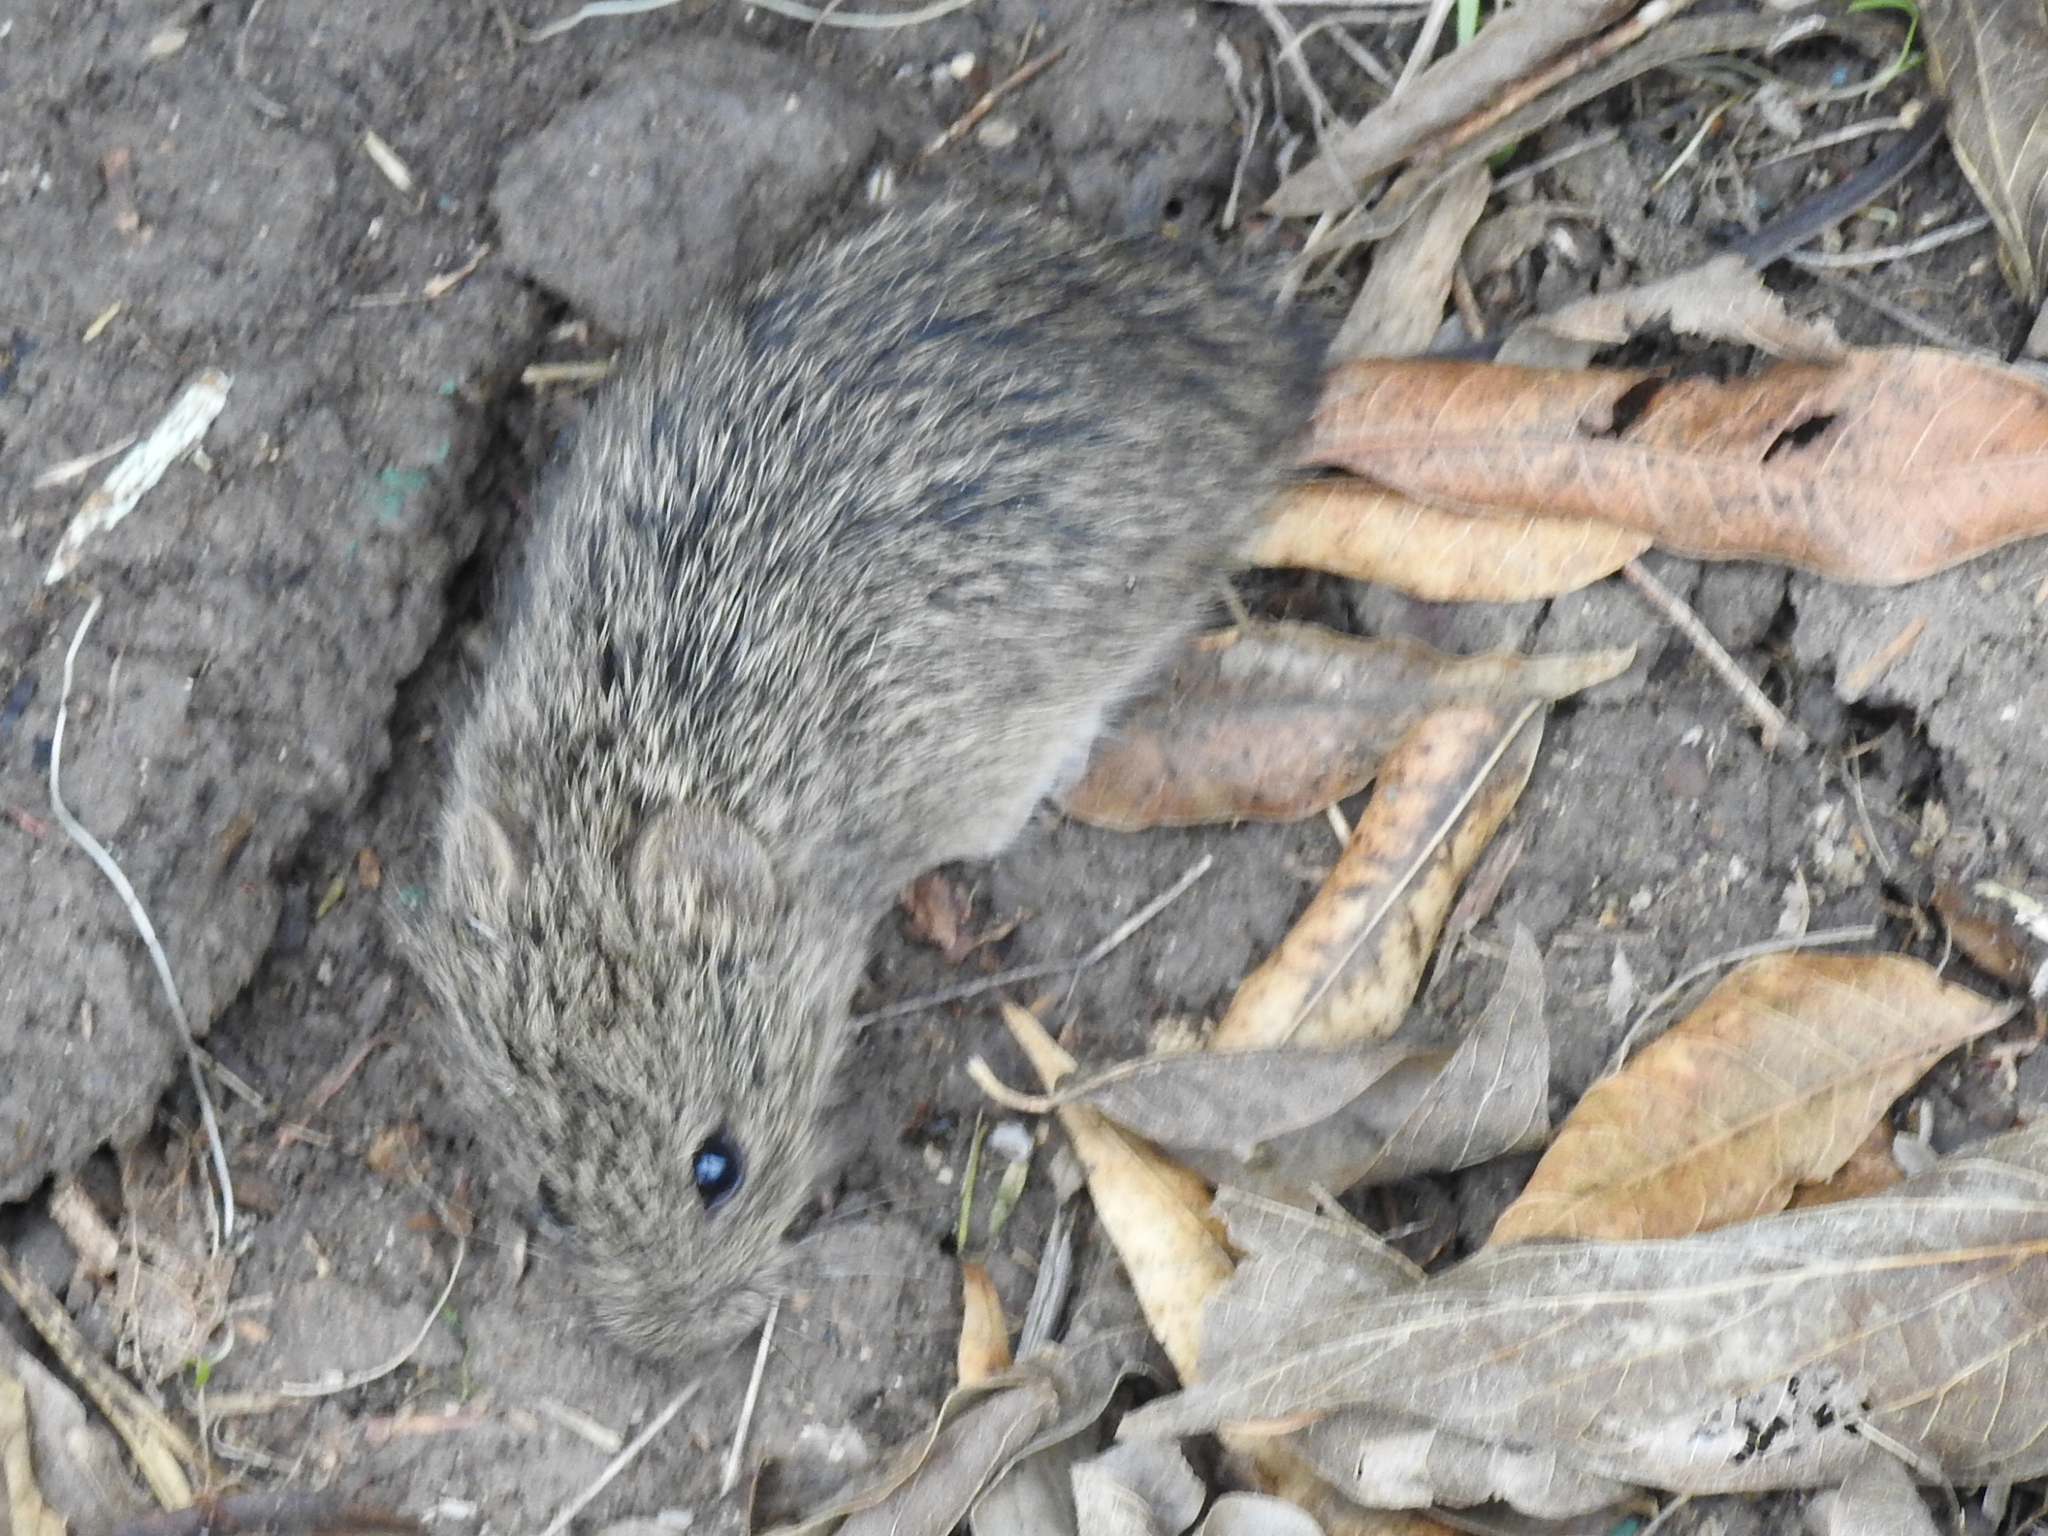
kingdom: Animalia
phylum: Chordata
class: Mammalia
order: Rodentia
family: Cricetidae
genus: Sigmodon
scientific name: Sigmodon hispidus
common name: Hispid cotton rat
